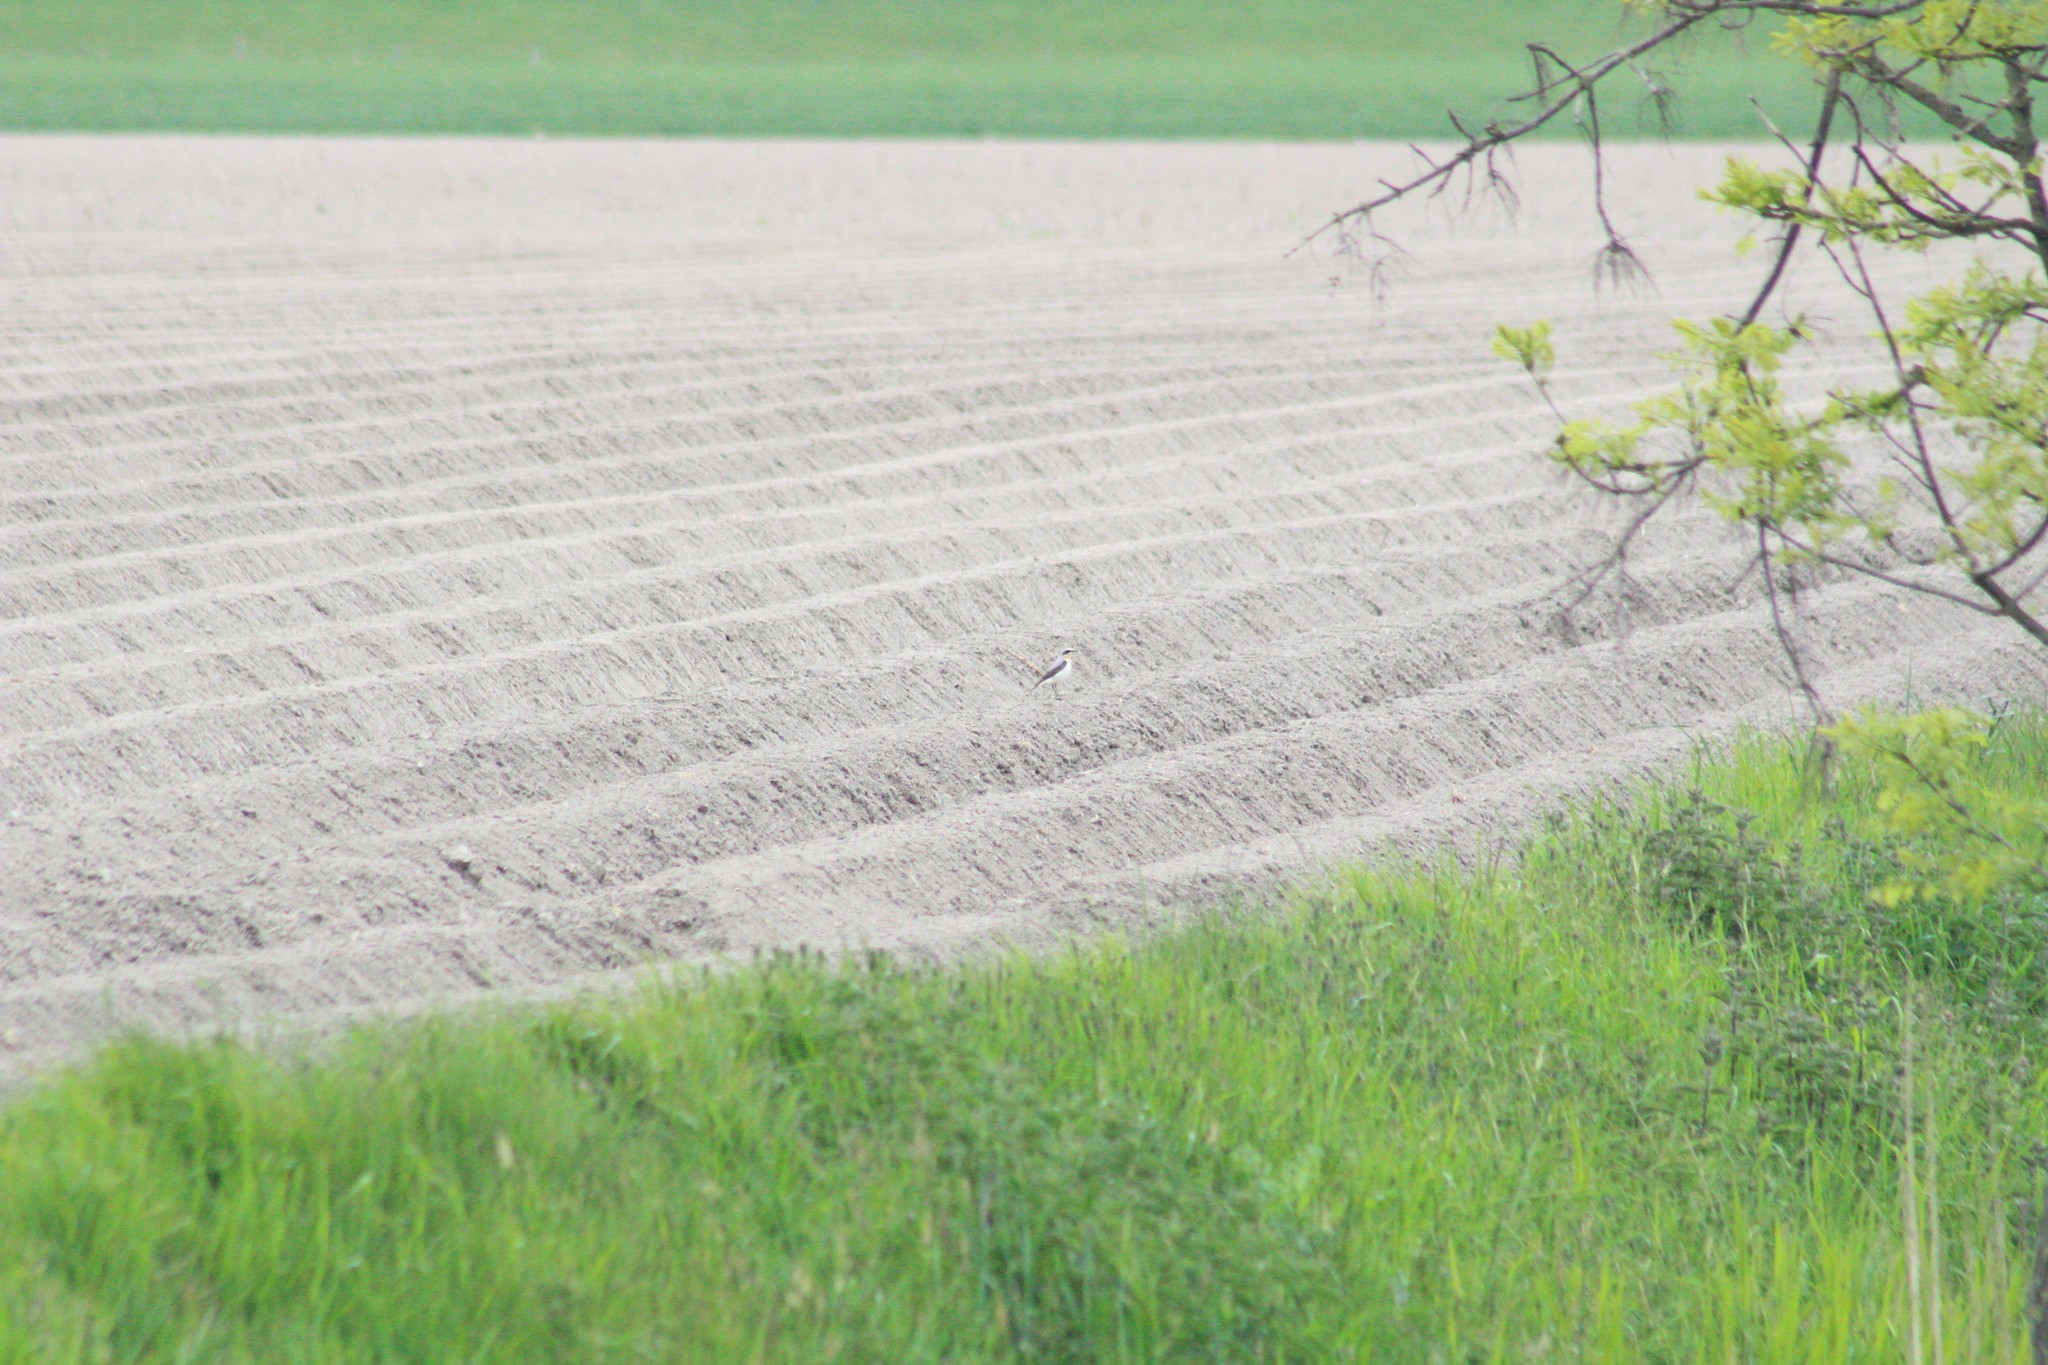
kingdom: Animalia
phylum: Chordata
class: Aves
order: Passeriformes
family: Muscicapidae
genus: Oenanthe
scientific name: Oenanthe oenanthe
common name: Northern wheatear
